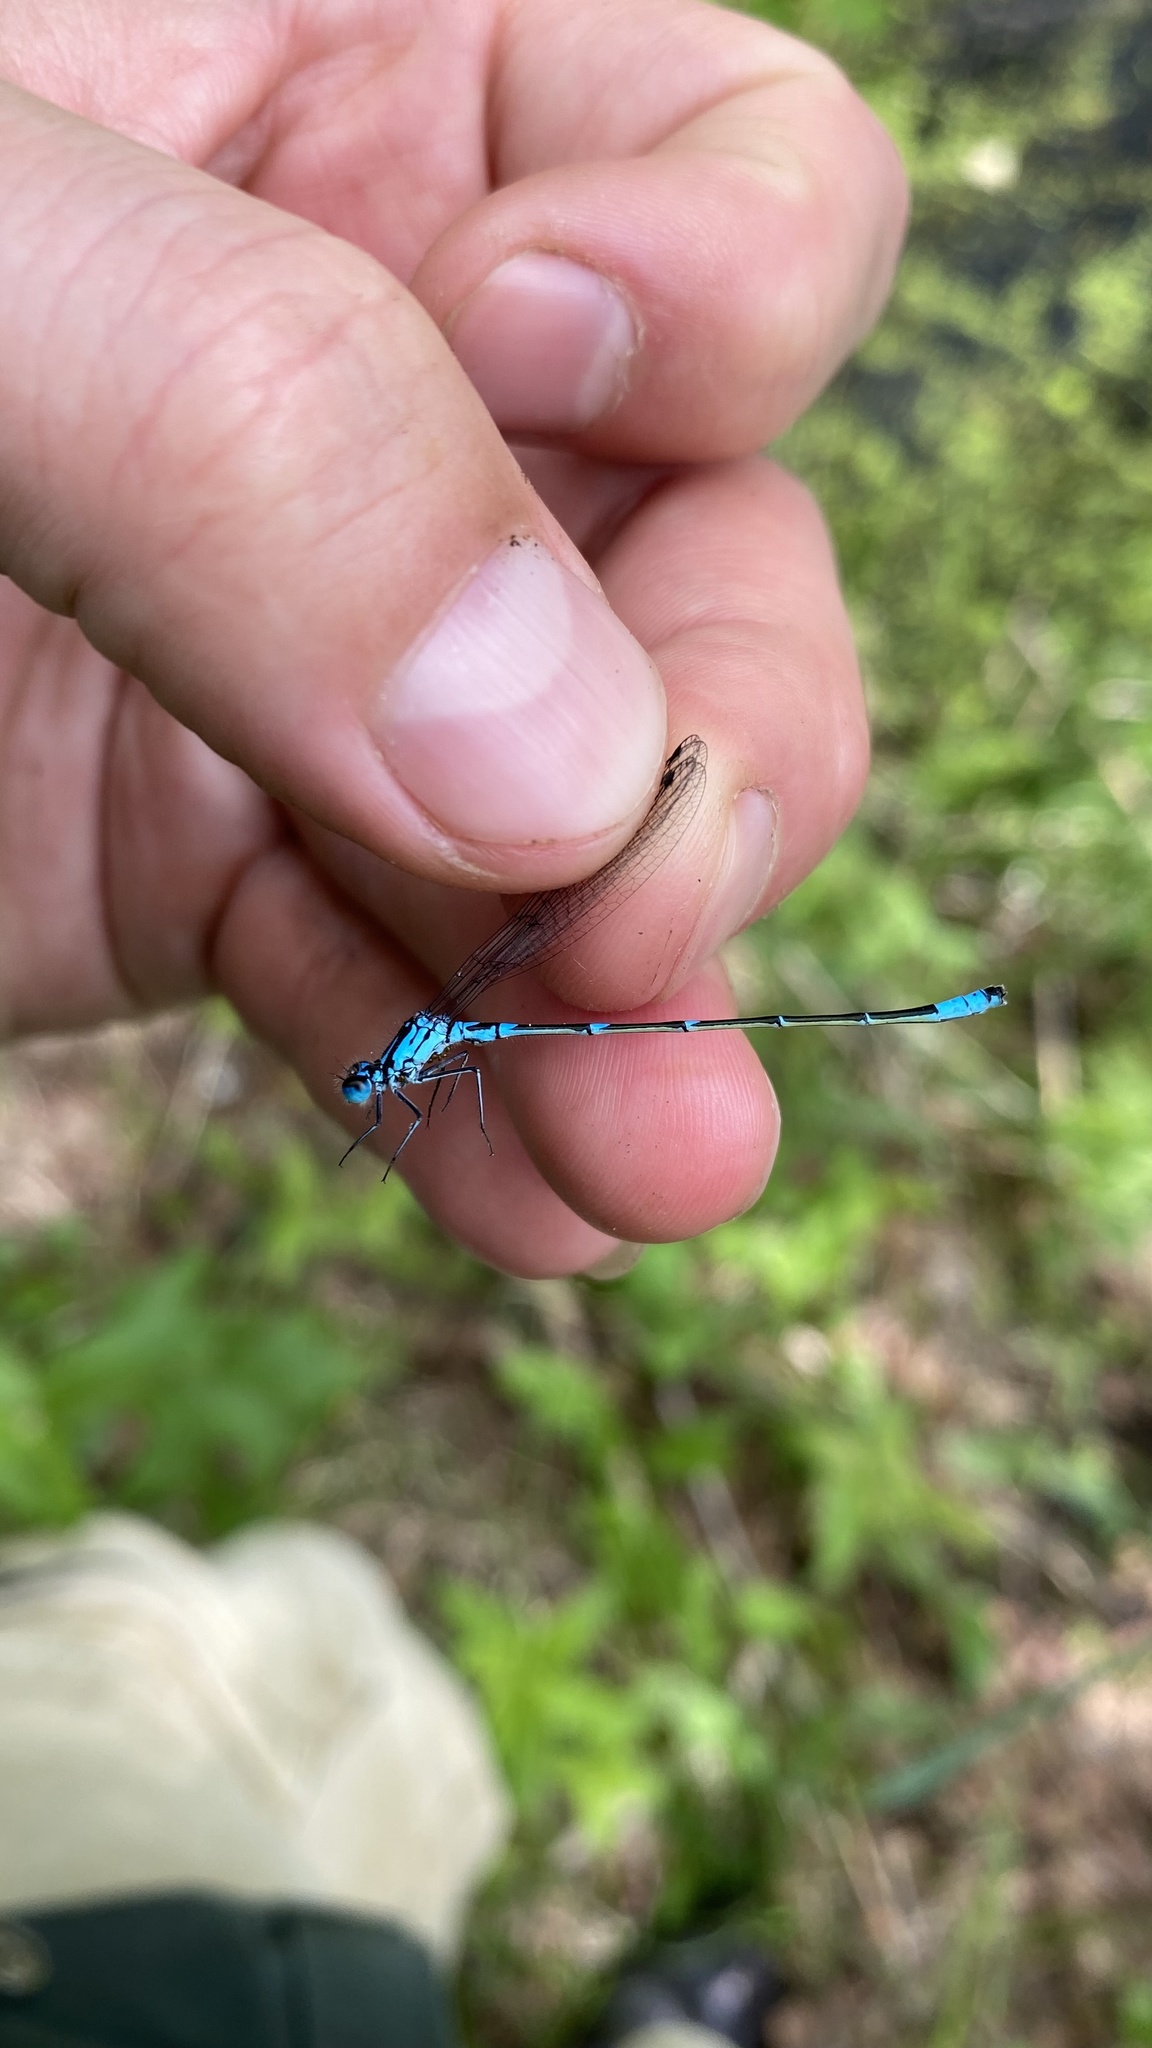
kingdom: Animalia
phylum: Arthropoda
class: Insecta
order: Odonata
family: Coenagrionidae
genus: Coenagrion
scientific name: Coenagrion pulchellum
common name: Variable bluet
